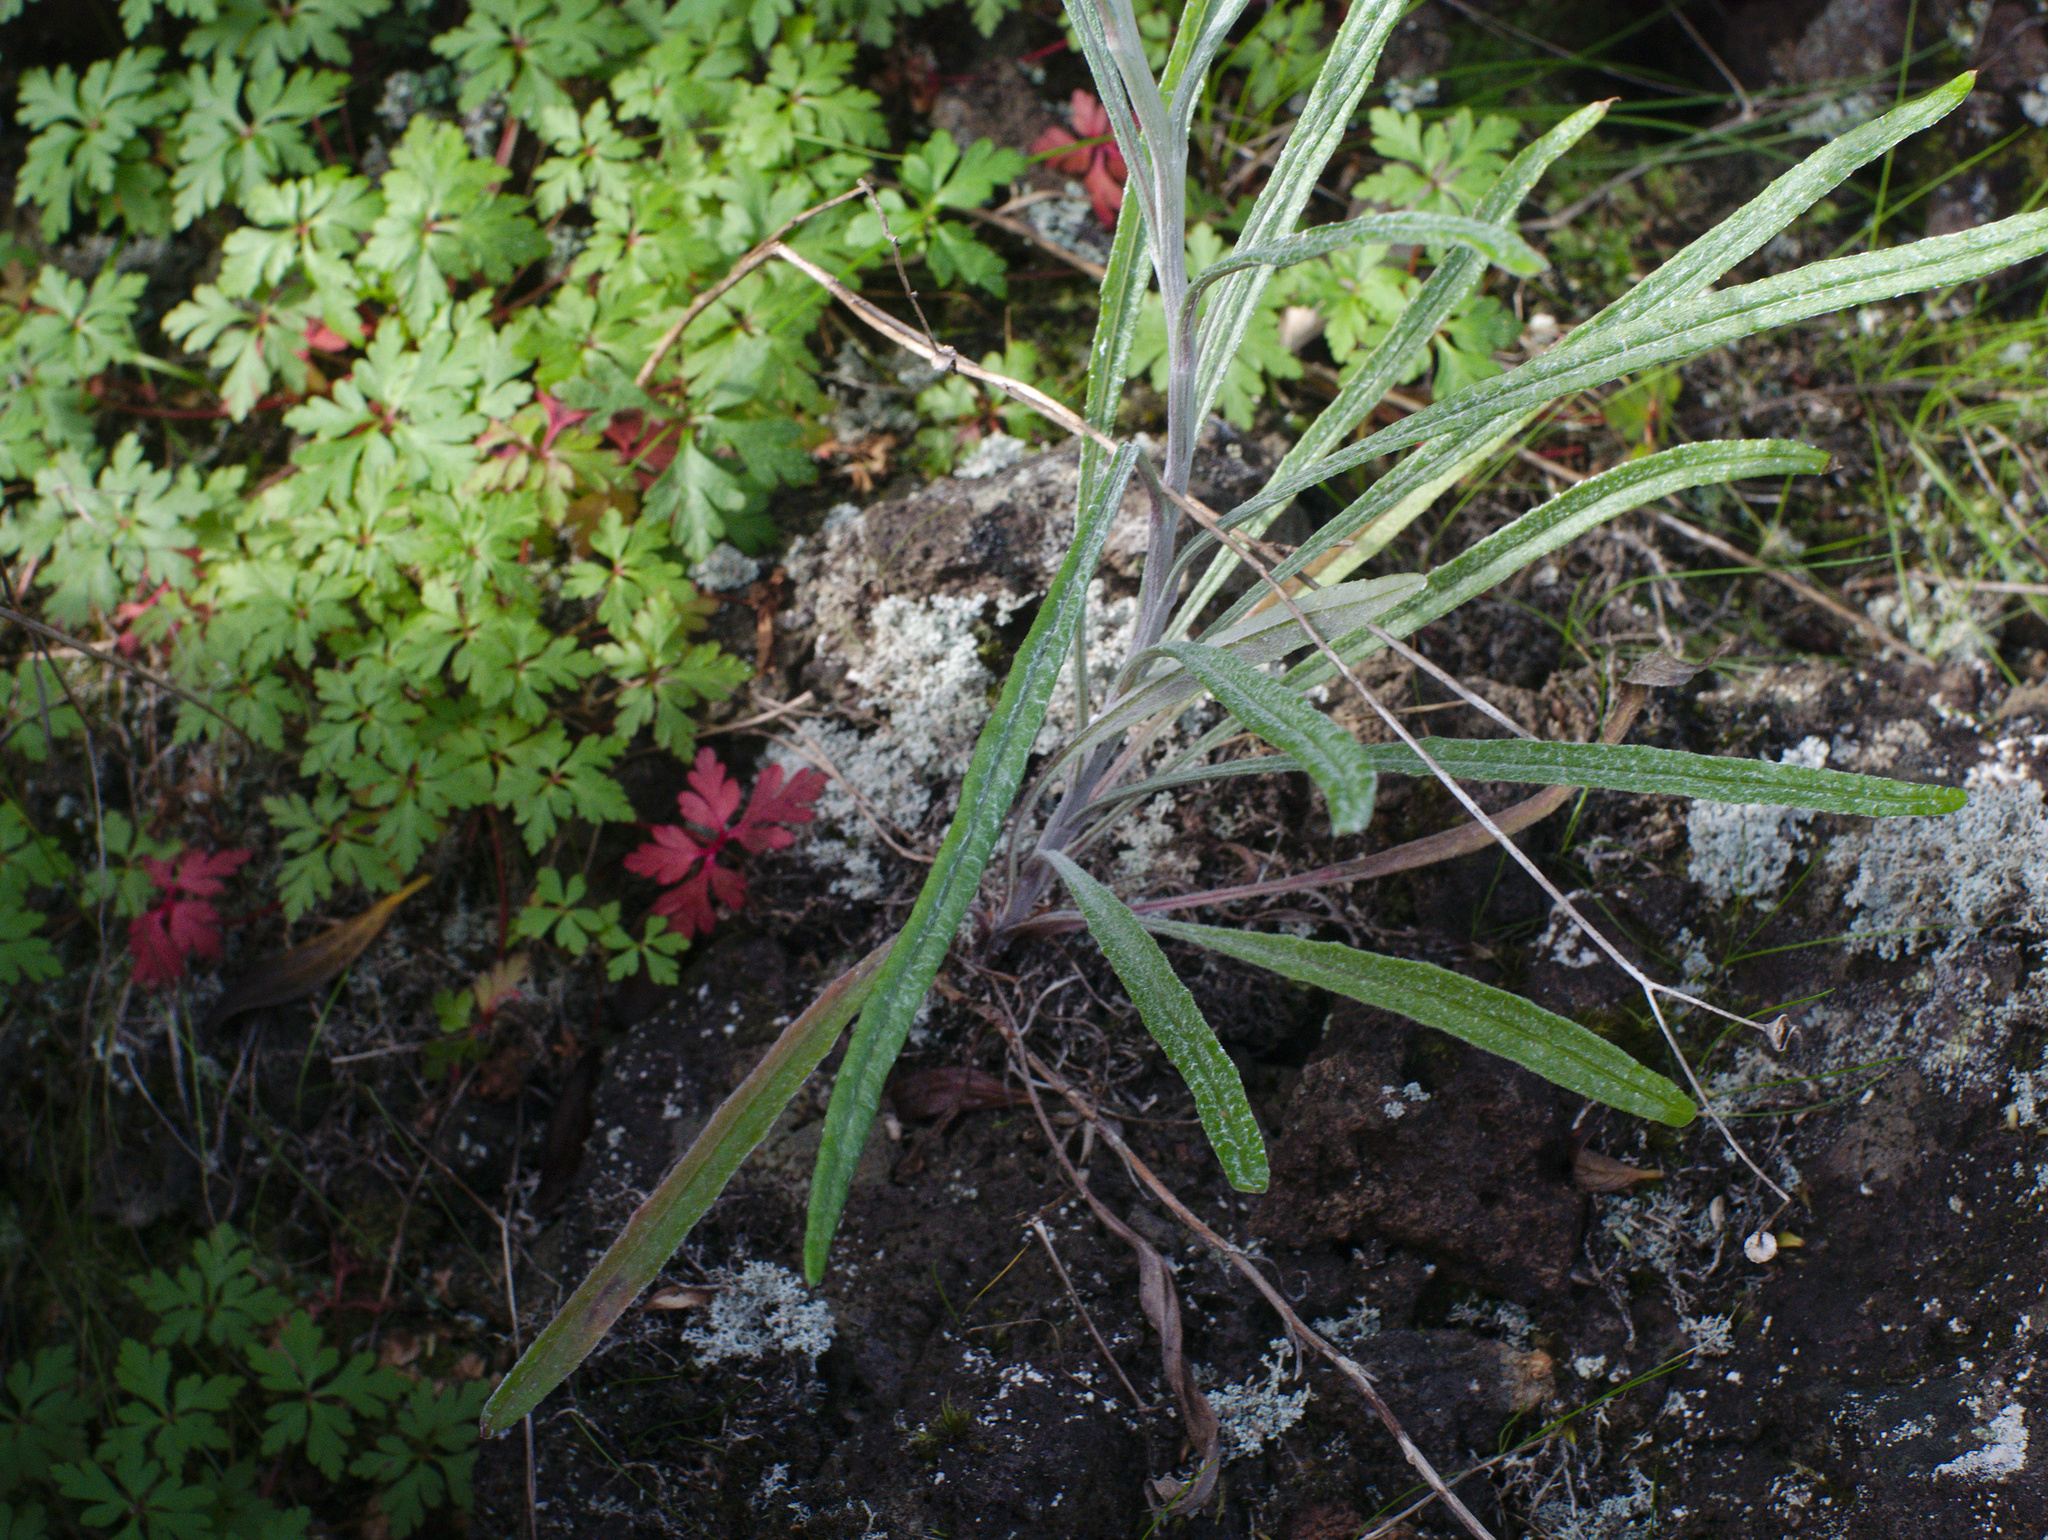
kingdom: Plantae
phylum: Tracheophyta
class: Magnoliopsida
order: Asterales
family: Asteraceae
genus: Senecio
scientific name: Senecio quadridentatus
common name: Cotton fireweed
